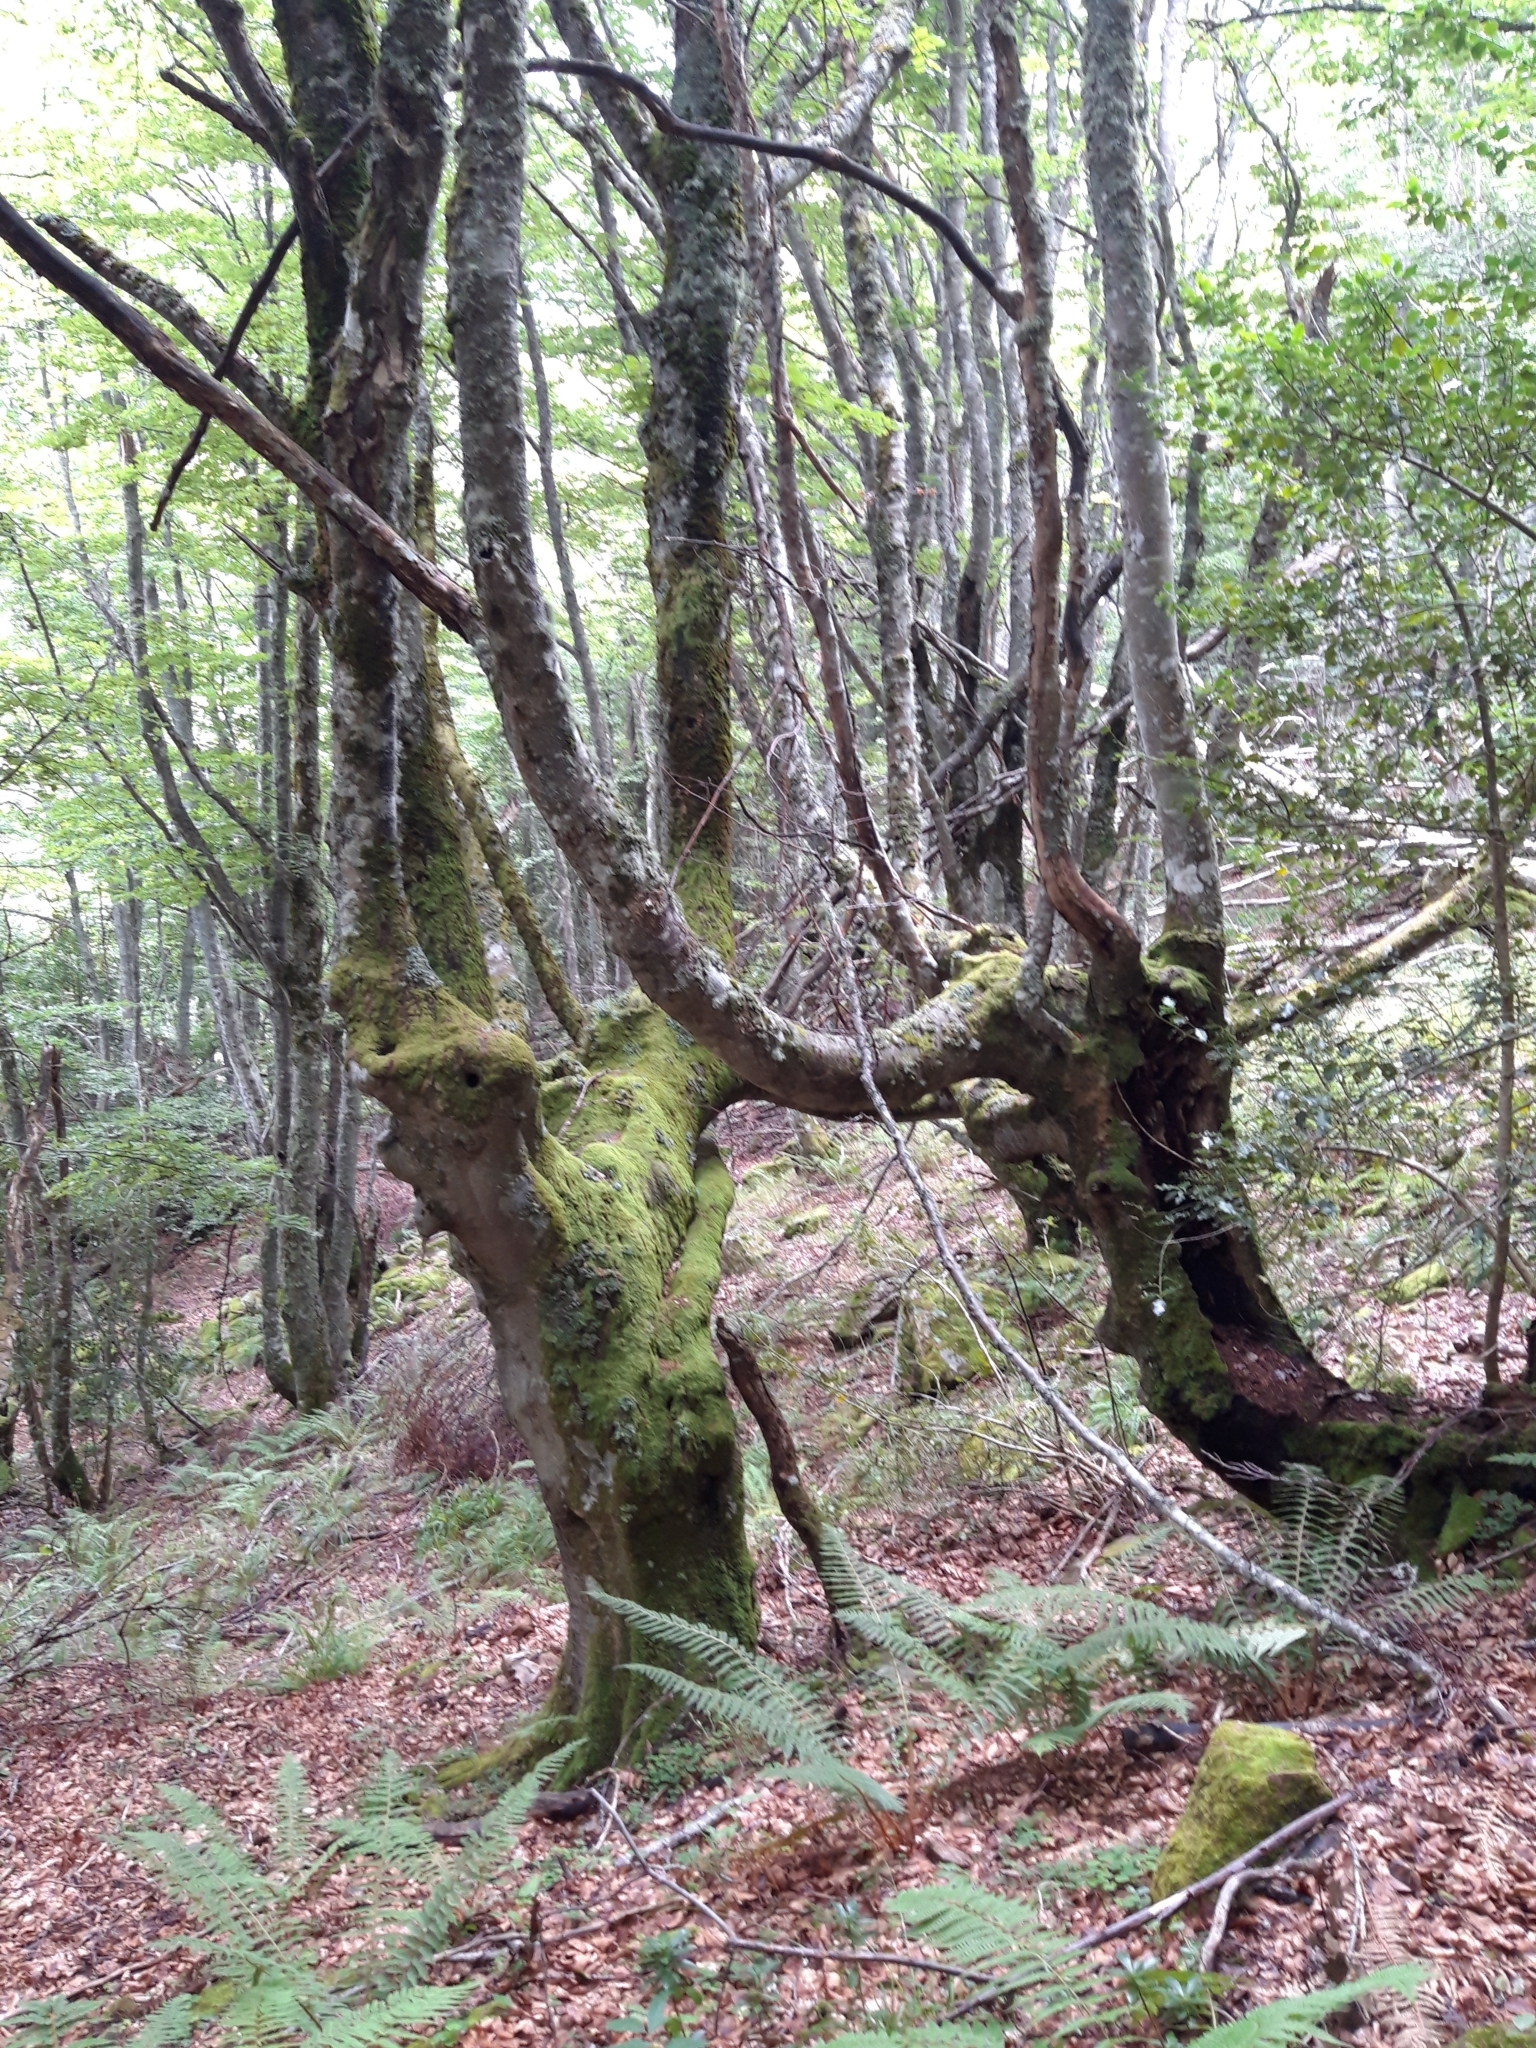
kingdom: Plantae
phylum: Tracheophyta
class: Magnoliopsida
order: Fagales
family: Fagaceae
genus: Fagus
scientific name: Fagus sylvatica
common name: Beech
